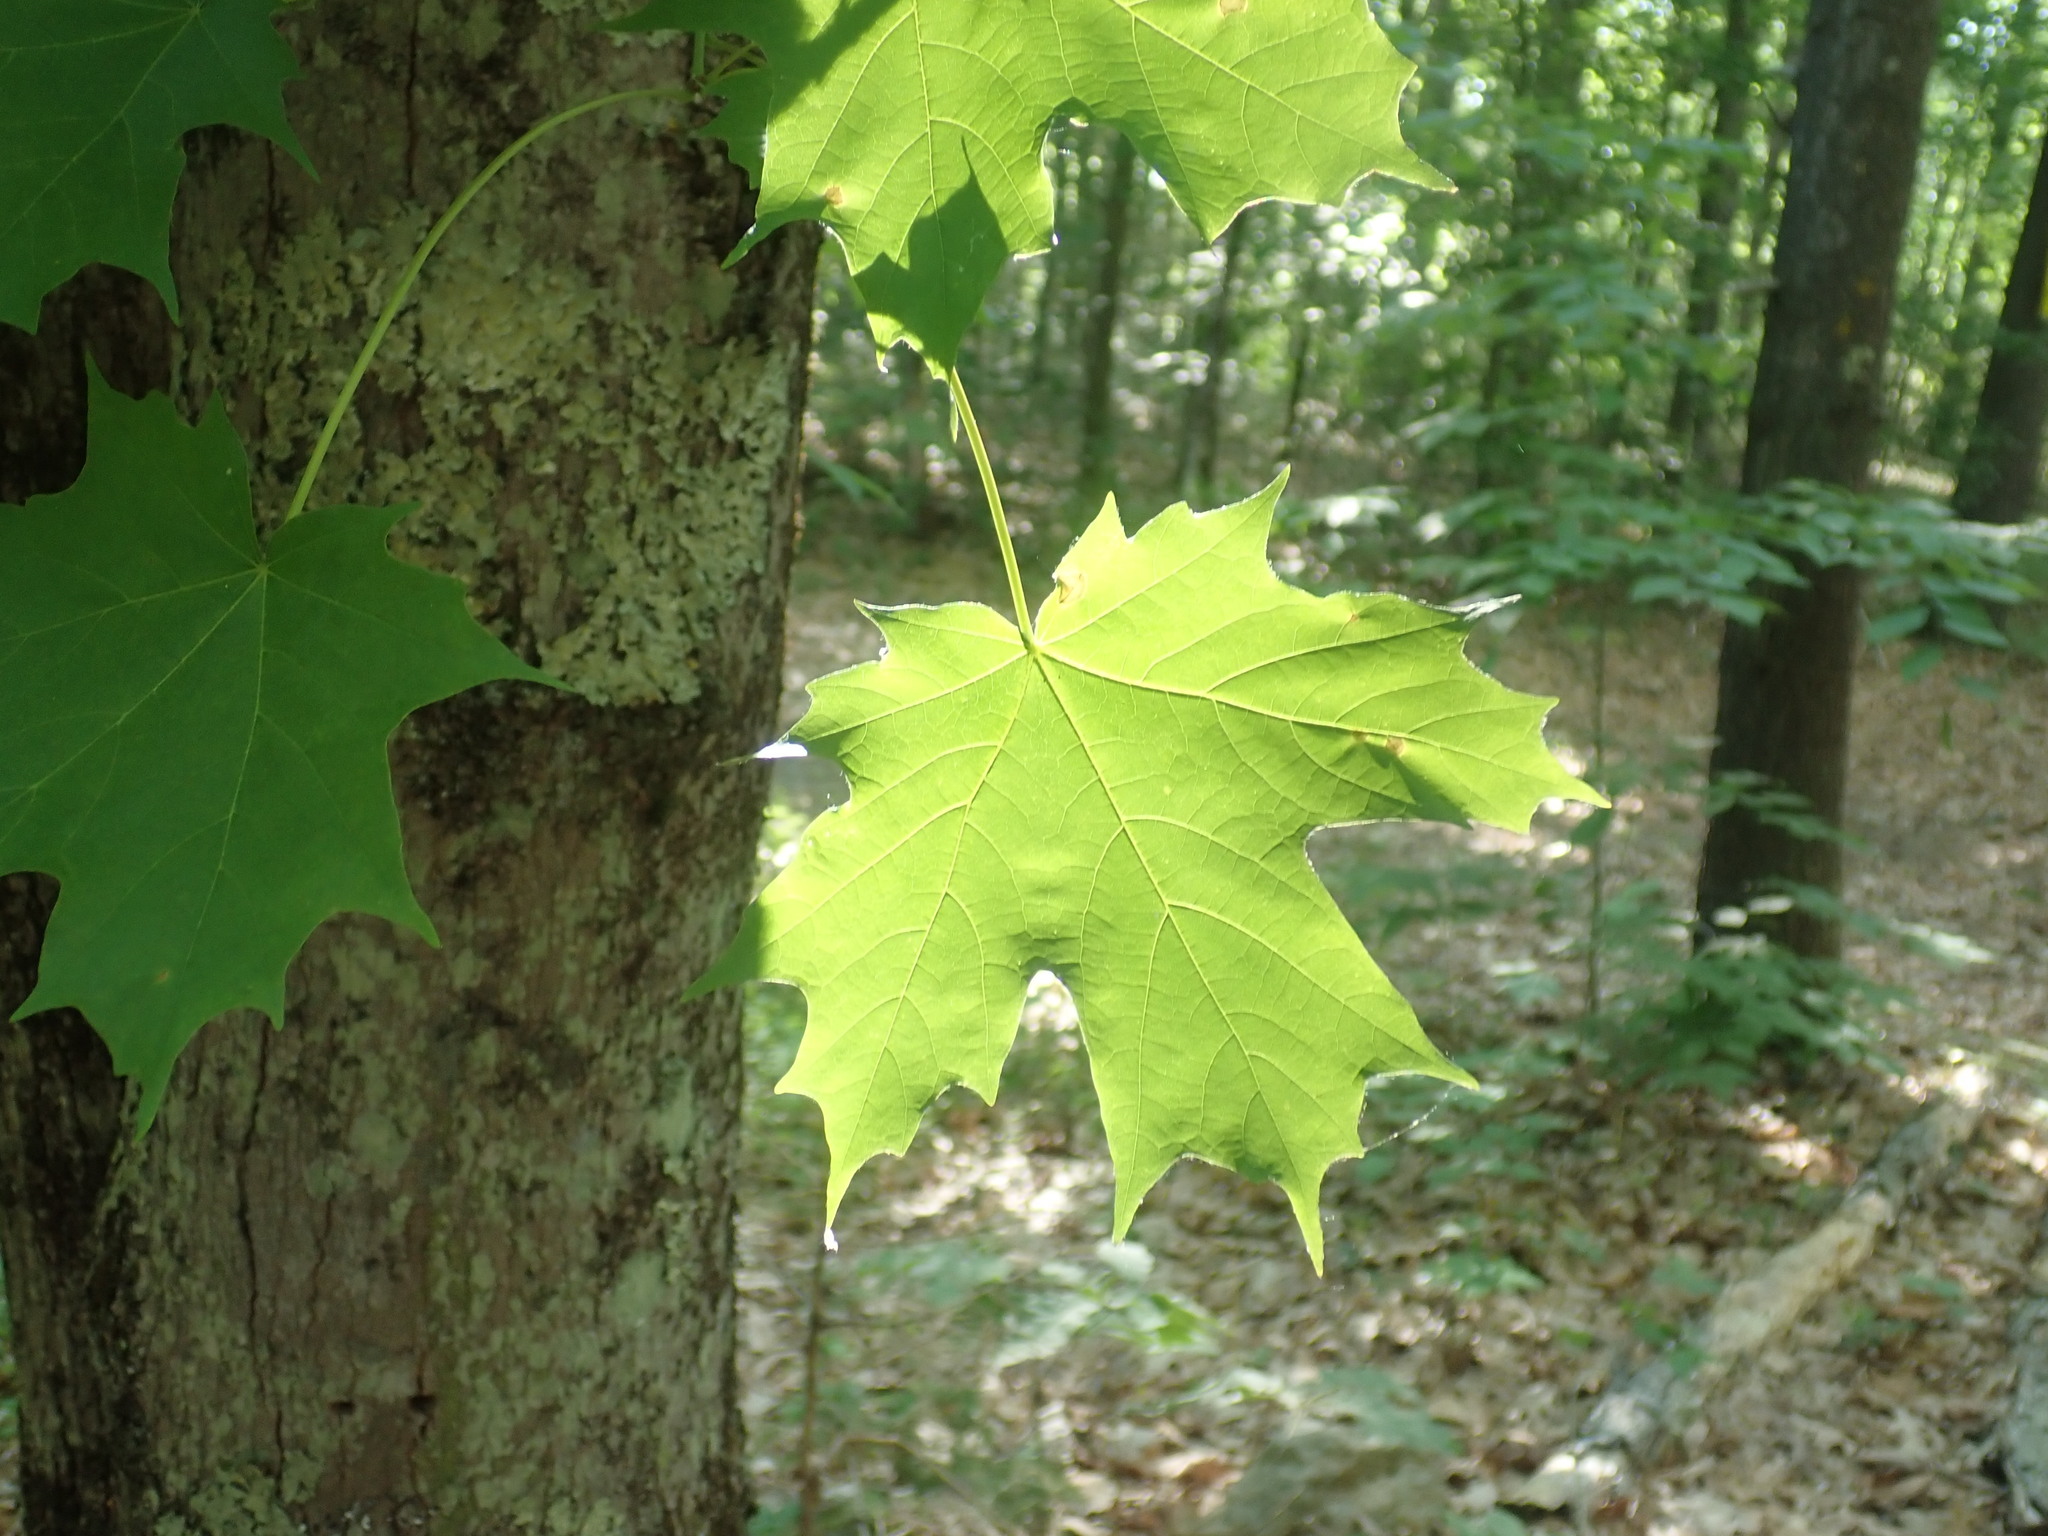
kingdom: Plantae
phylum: Tracheophyta
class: Magnoliopsida
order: Sapindales
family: Sapindaceae
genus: Acer
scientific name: Acer saccharum
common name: Sugar maple
